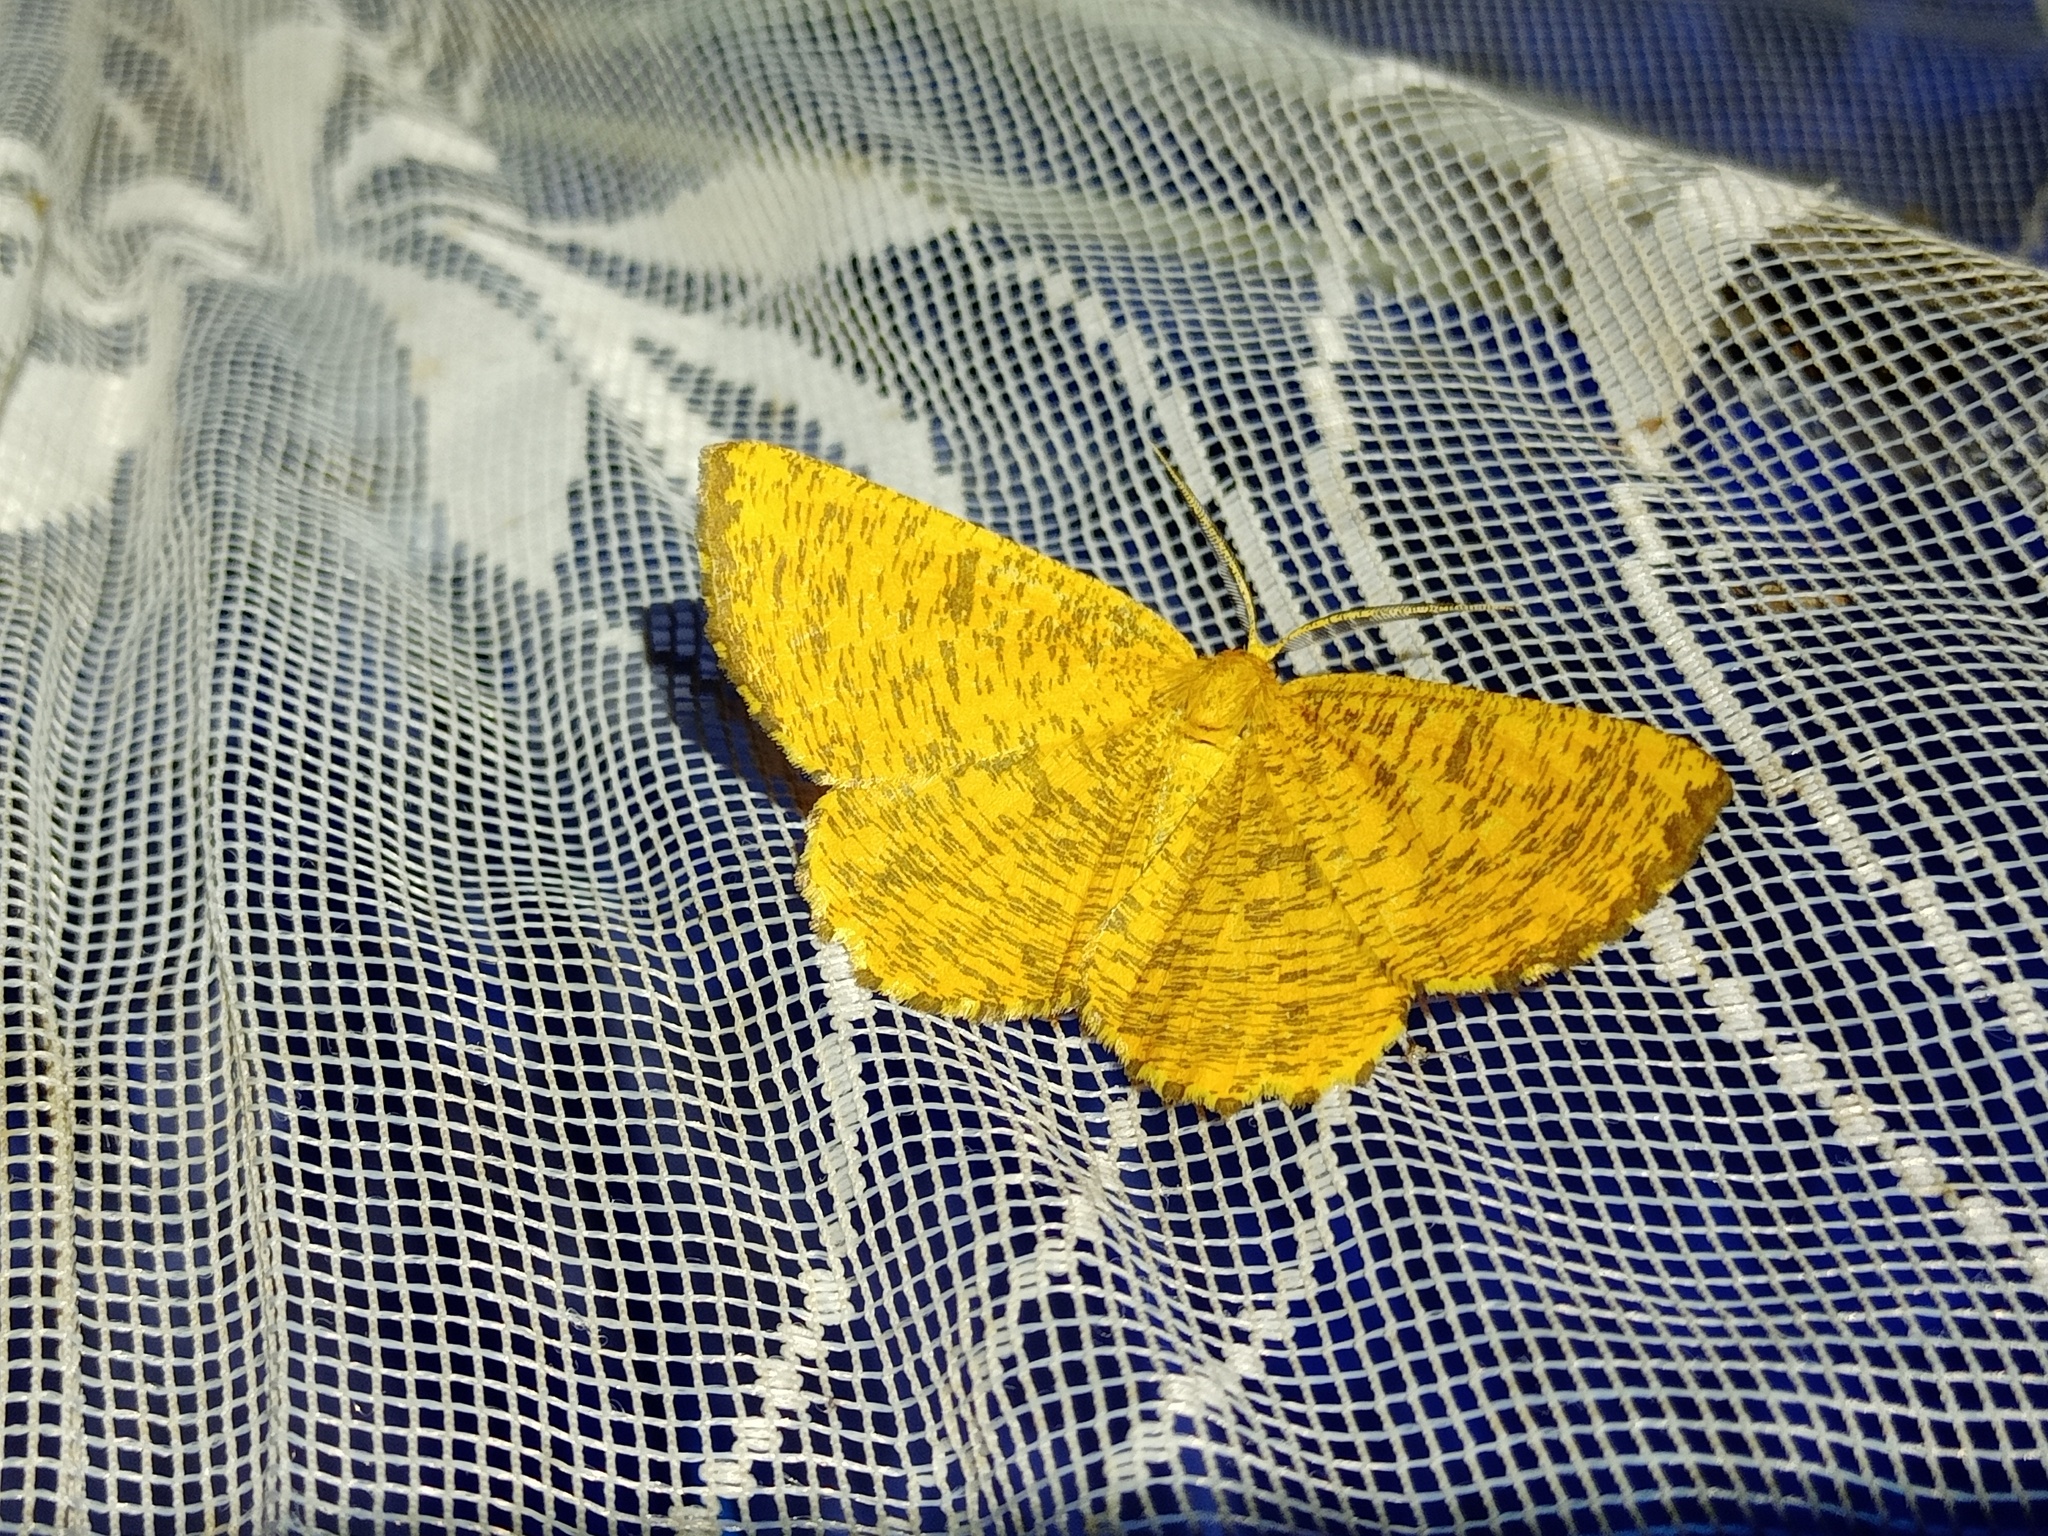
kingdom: Animalia
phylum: Arthropoda
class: Insecta
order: Lepidoptera
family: Geometridae
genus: Angerona
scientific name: Angerona prunaria
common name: Orange moth
